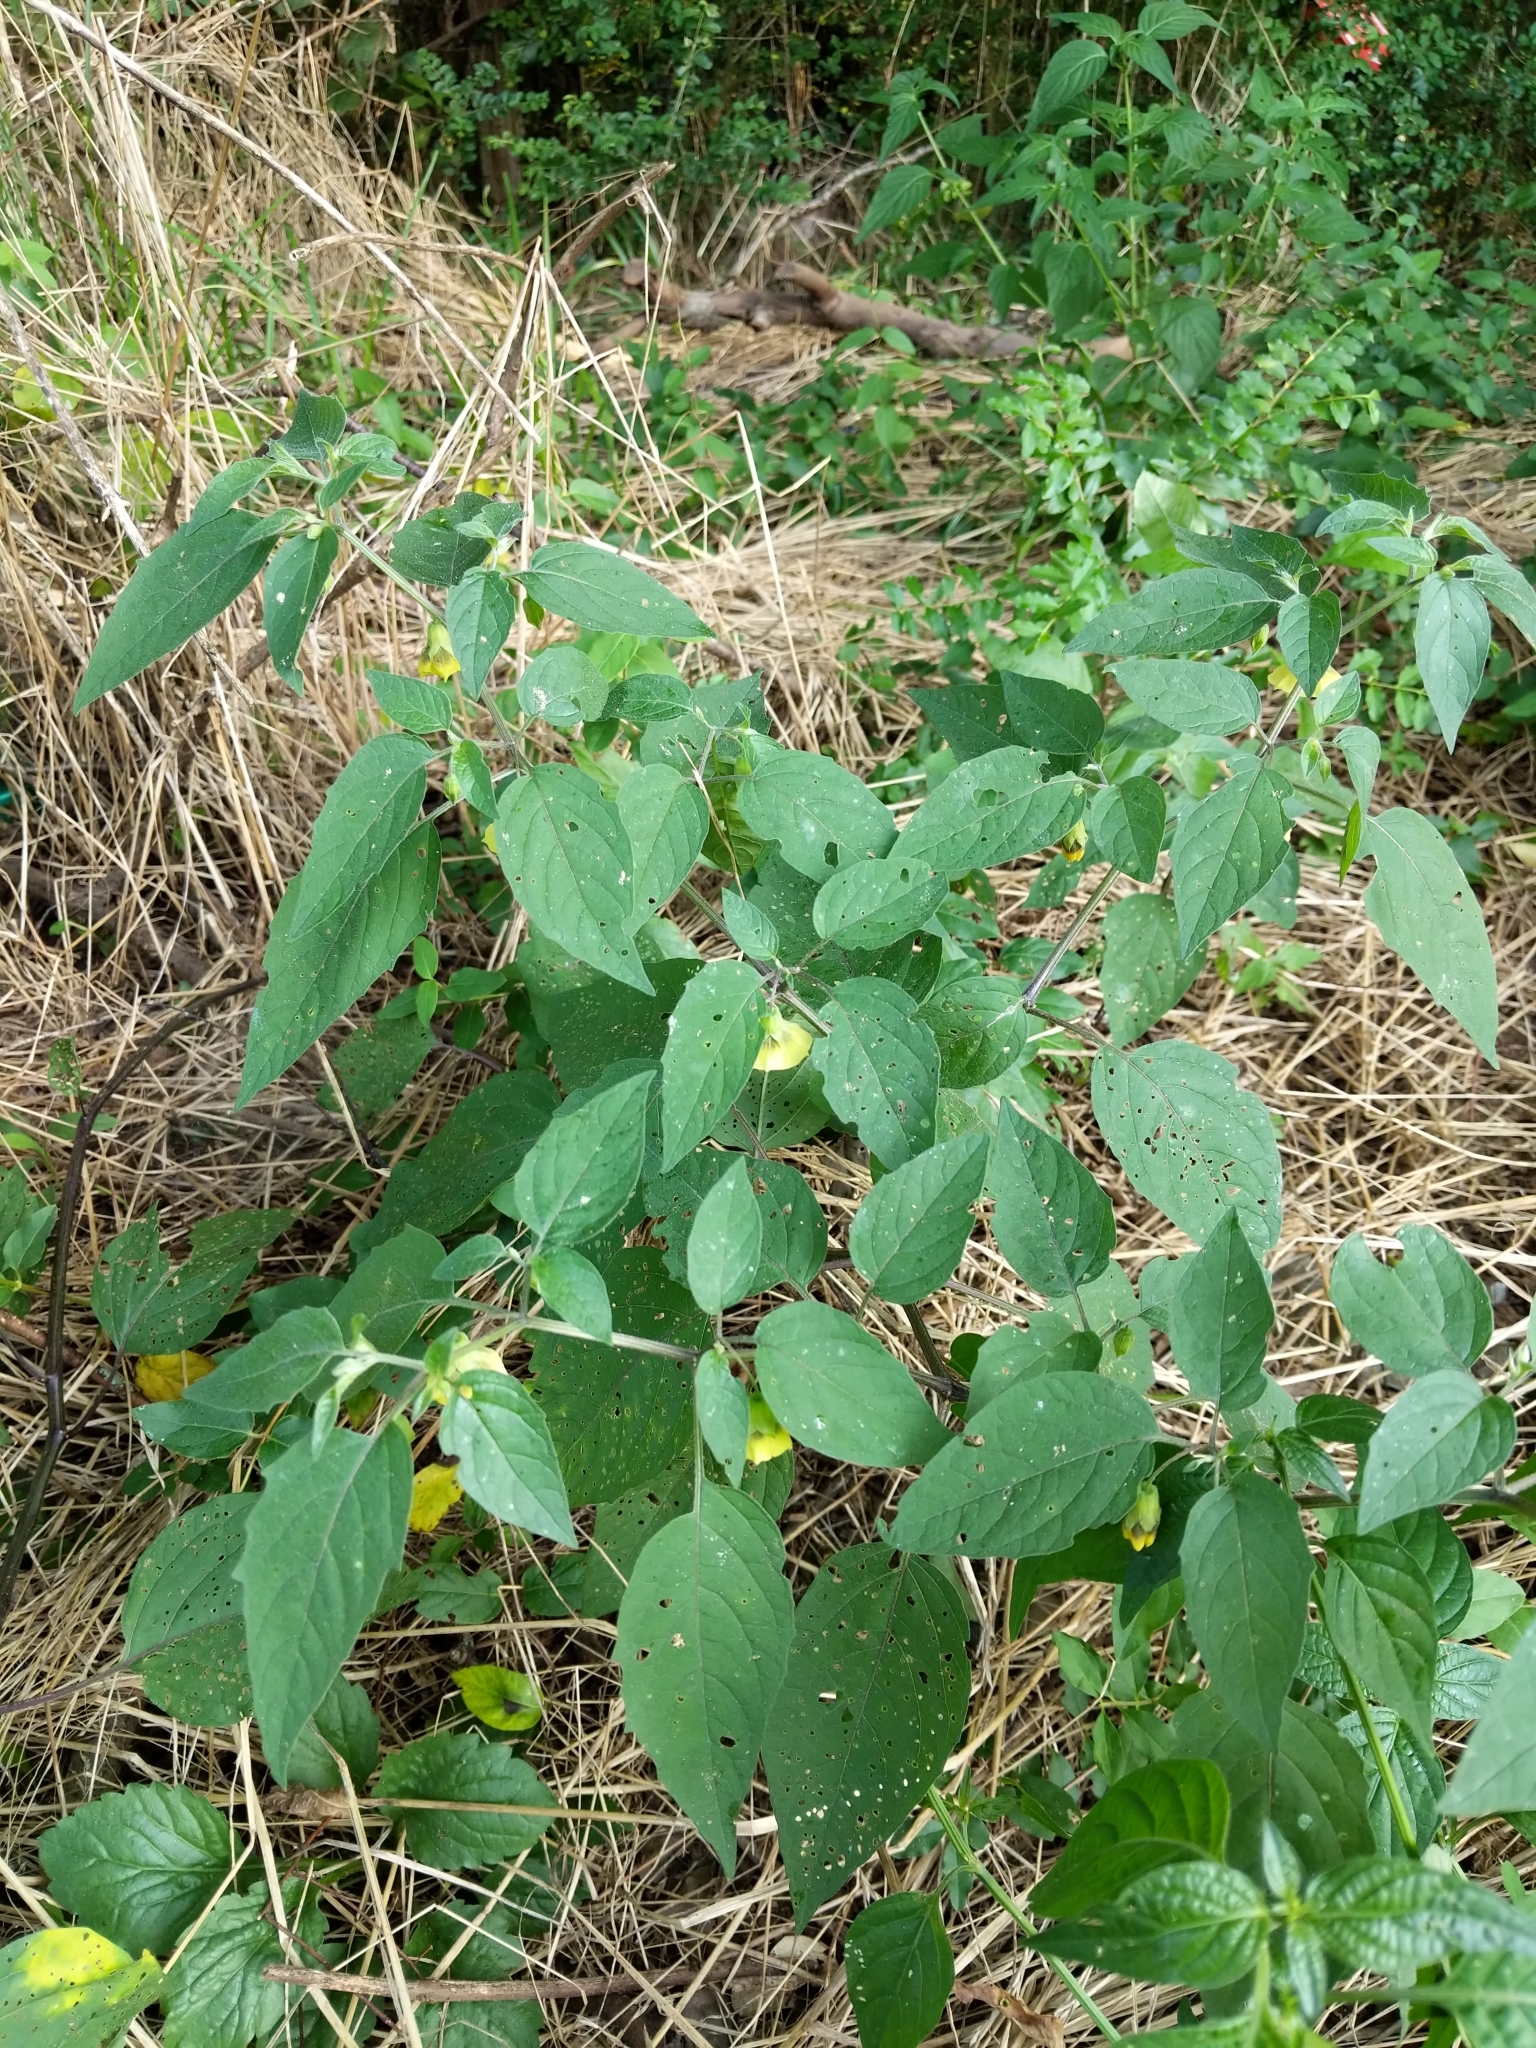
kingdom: Plantae
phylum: Tracheophyta
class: Magnoliopsida
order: Solanales
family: Solanaceae
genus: Physalis
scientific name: Physalis longifolia
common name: Common ground-cherry
